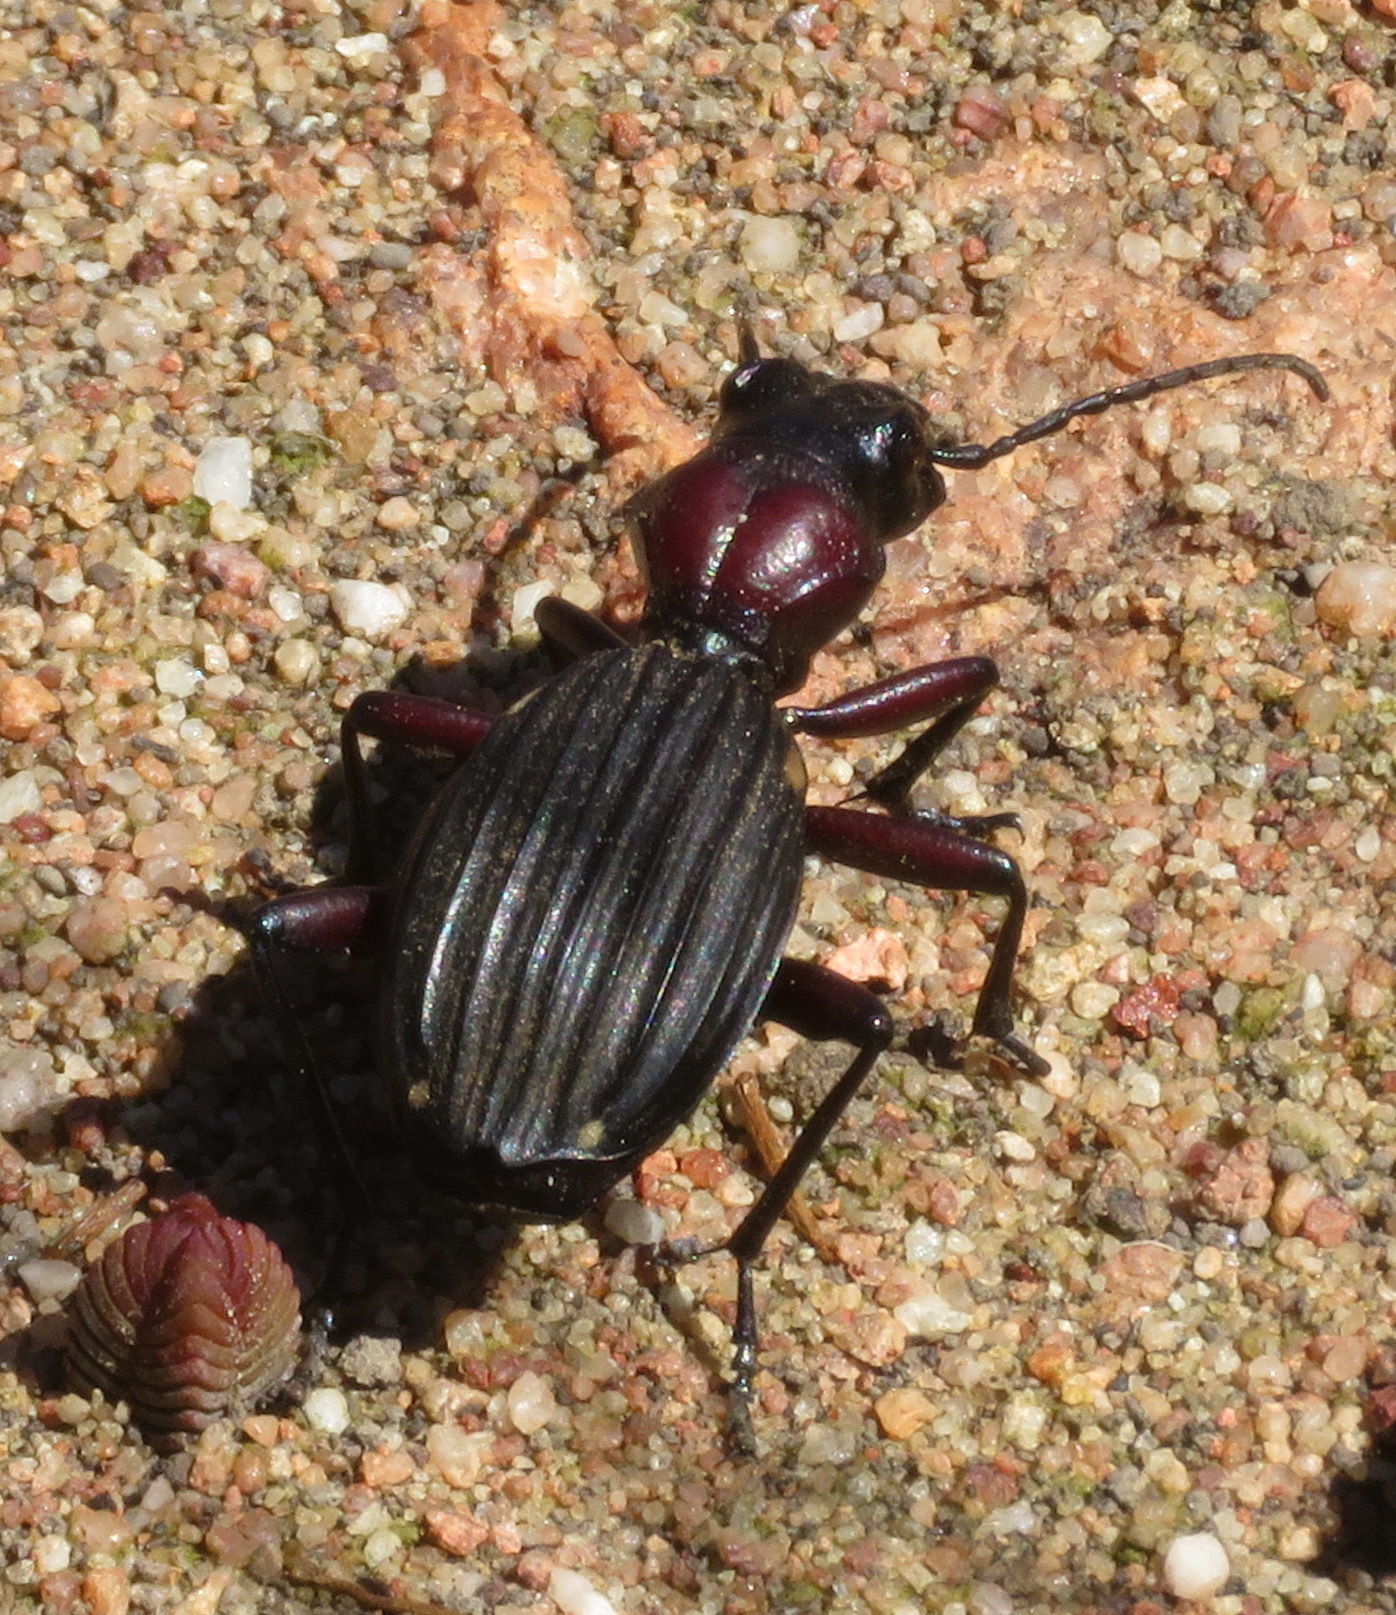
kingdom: Animalia
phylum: Arthropoda
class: Insecta
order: Coleoptera
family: Carabidae
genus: Anthia
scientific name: Anthia decemguttata
